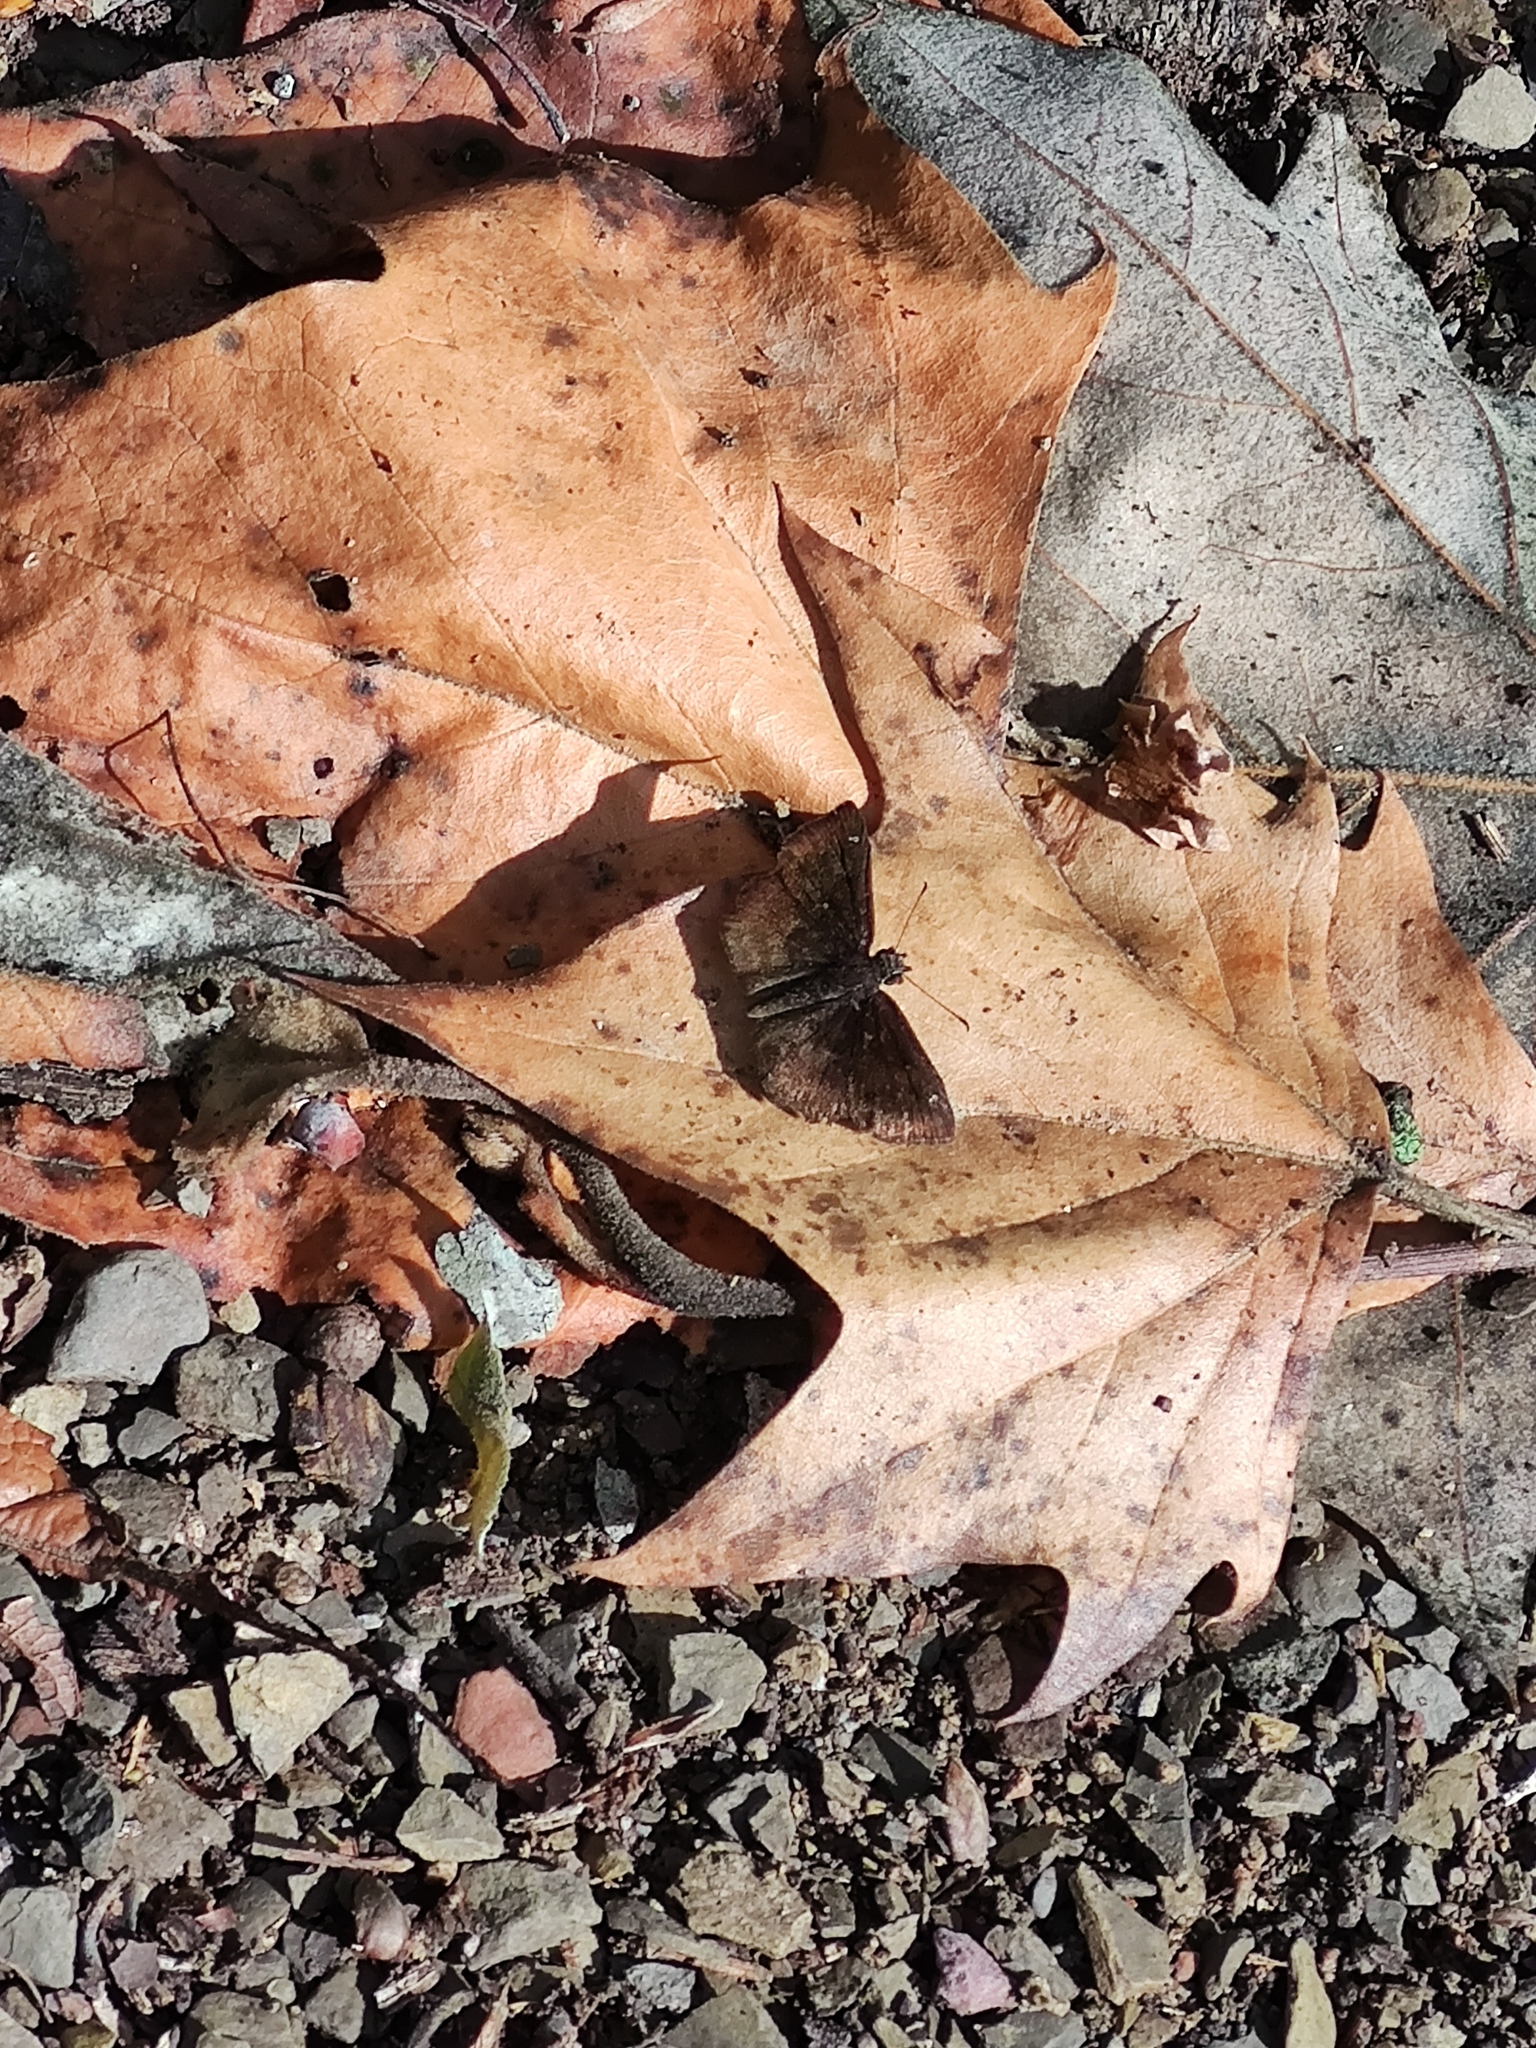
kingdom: Animalia
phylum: Arthropoda
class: Insecta
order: Lepidoptera
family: Hesperiidae
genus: Staphylus
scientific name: Staphylus mazans
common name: Mazans scallopwing
